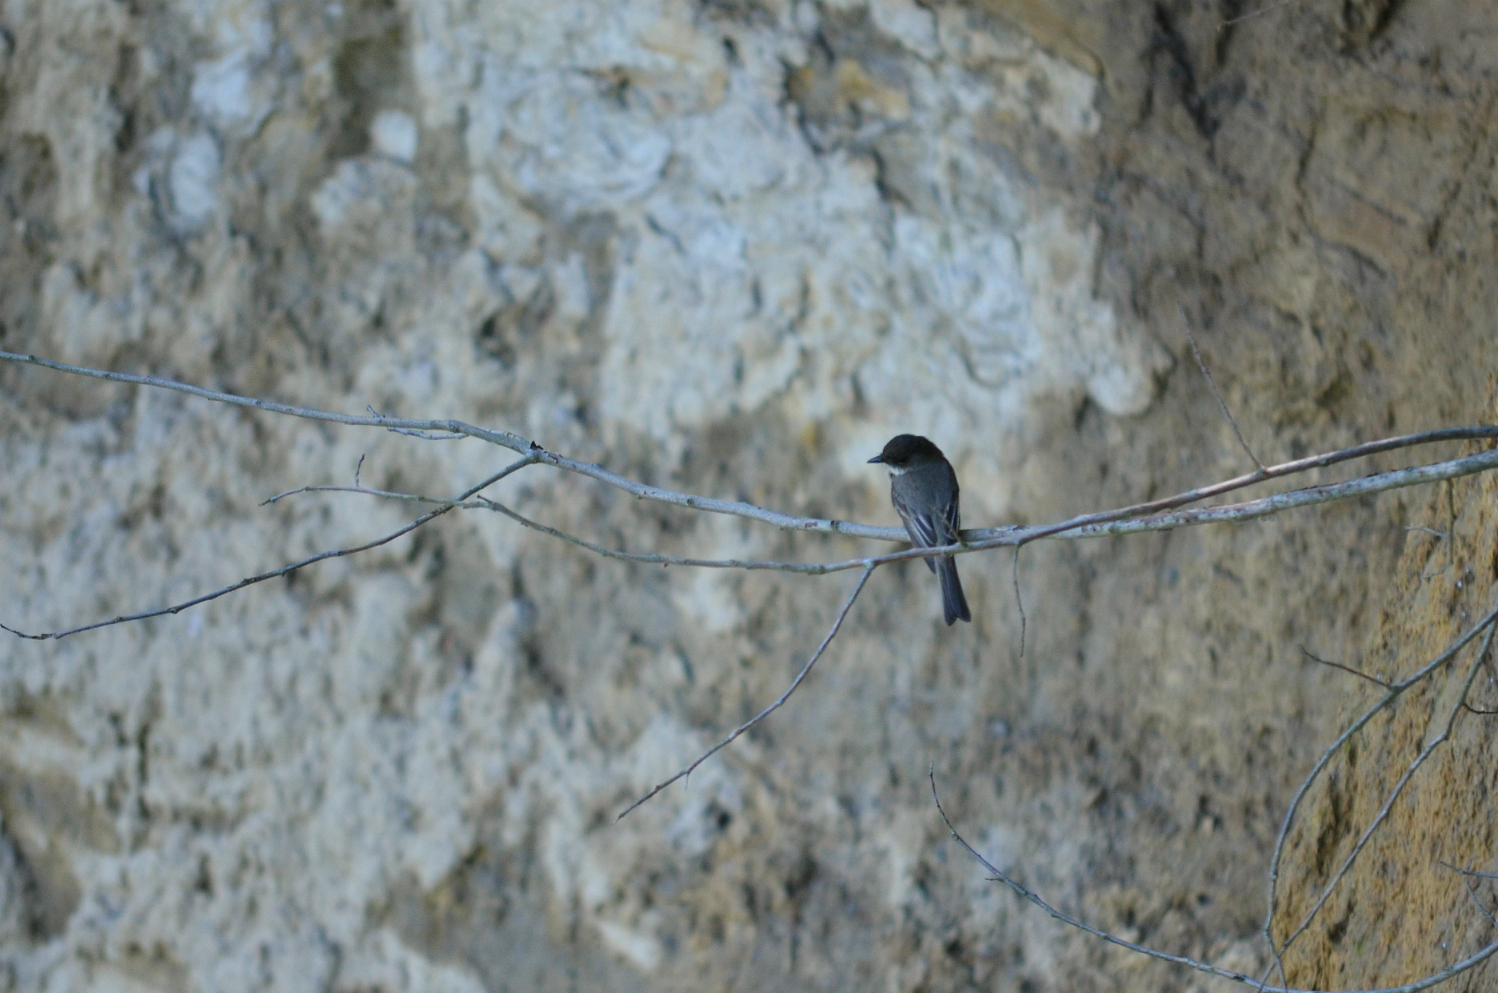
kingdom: Animalia
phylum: Chordata
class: Aves
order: Passeriformes
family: Tyrannidae
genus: Sayornis
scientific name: Sayornis phoebe
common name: Eastern phoebe
